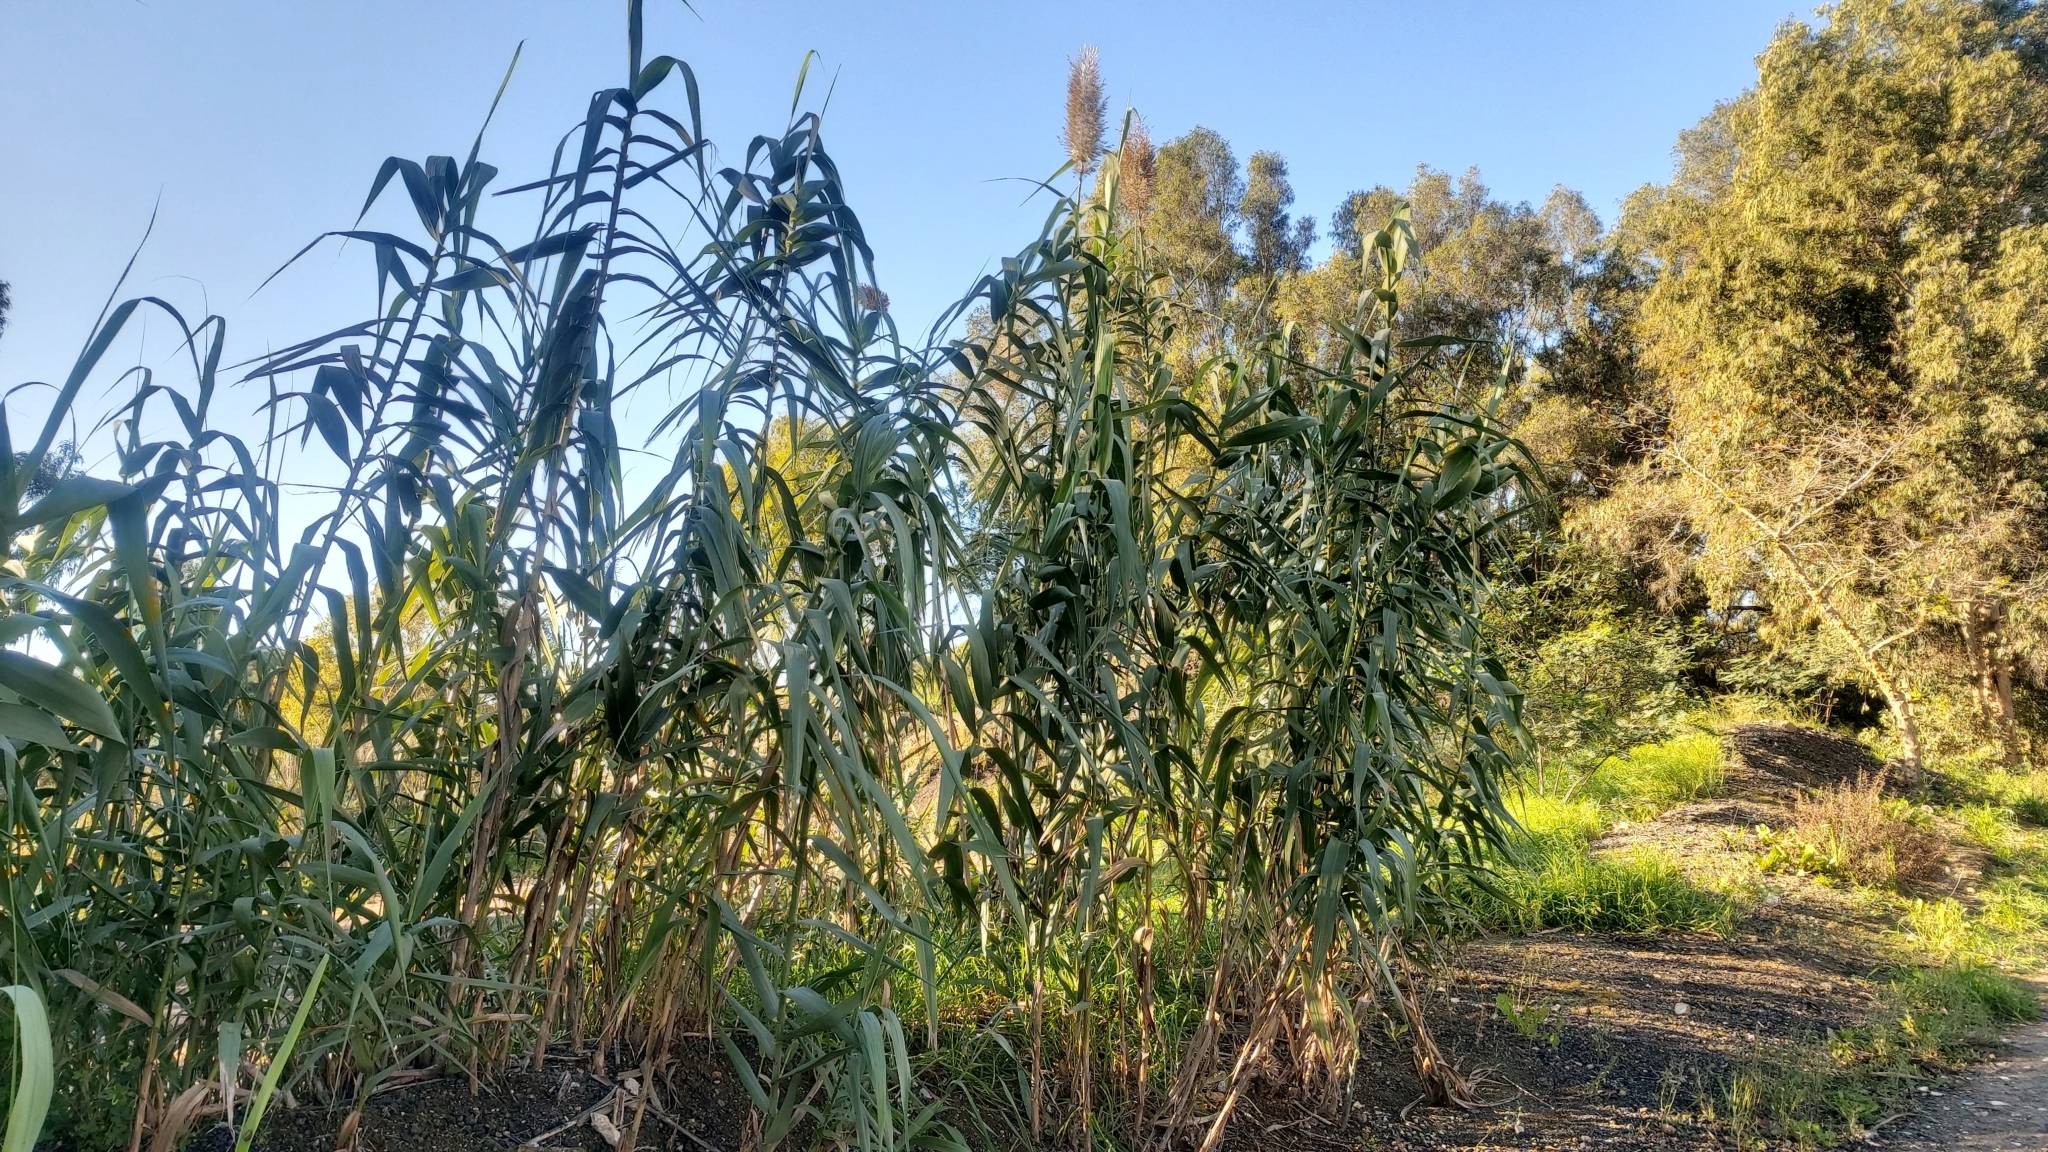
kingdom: Plantae
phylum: Tracheophyta
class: Liliopsida
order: Poales
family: Poaceae
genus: Arundo
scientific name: Arundo donax
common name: Giant reed
